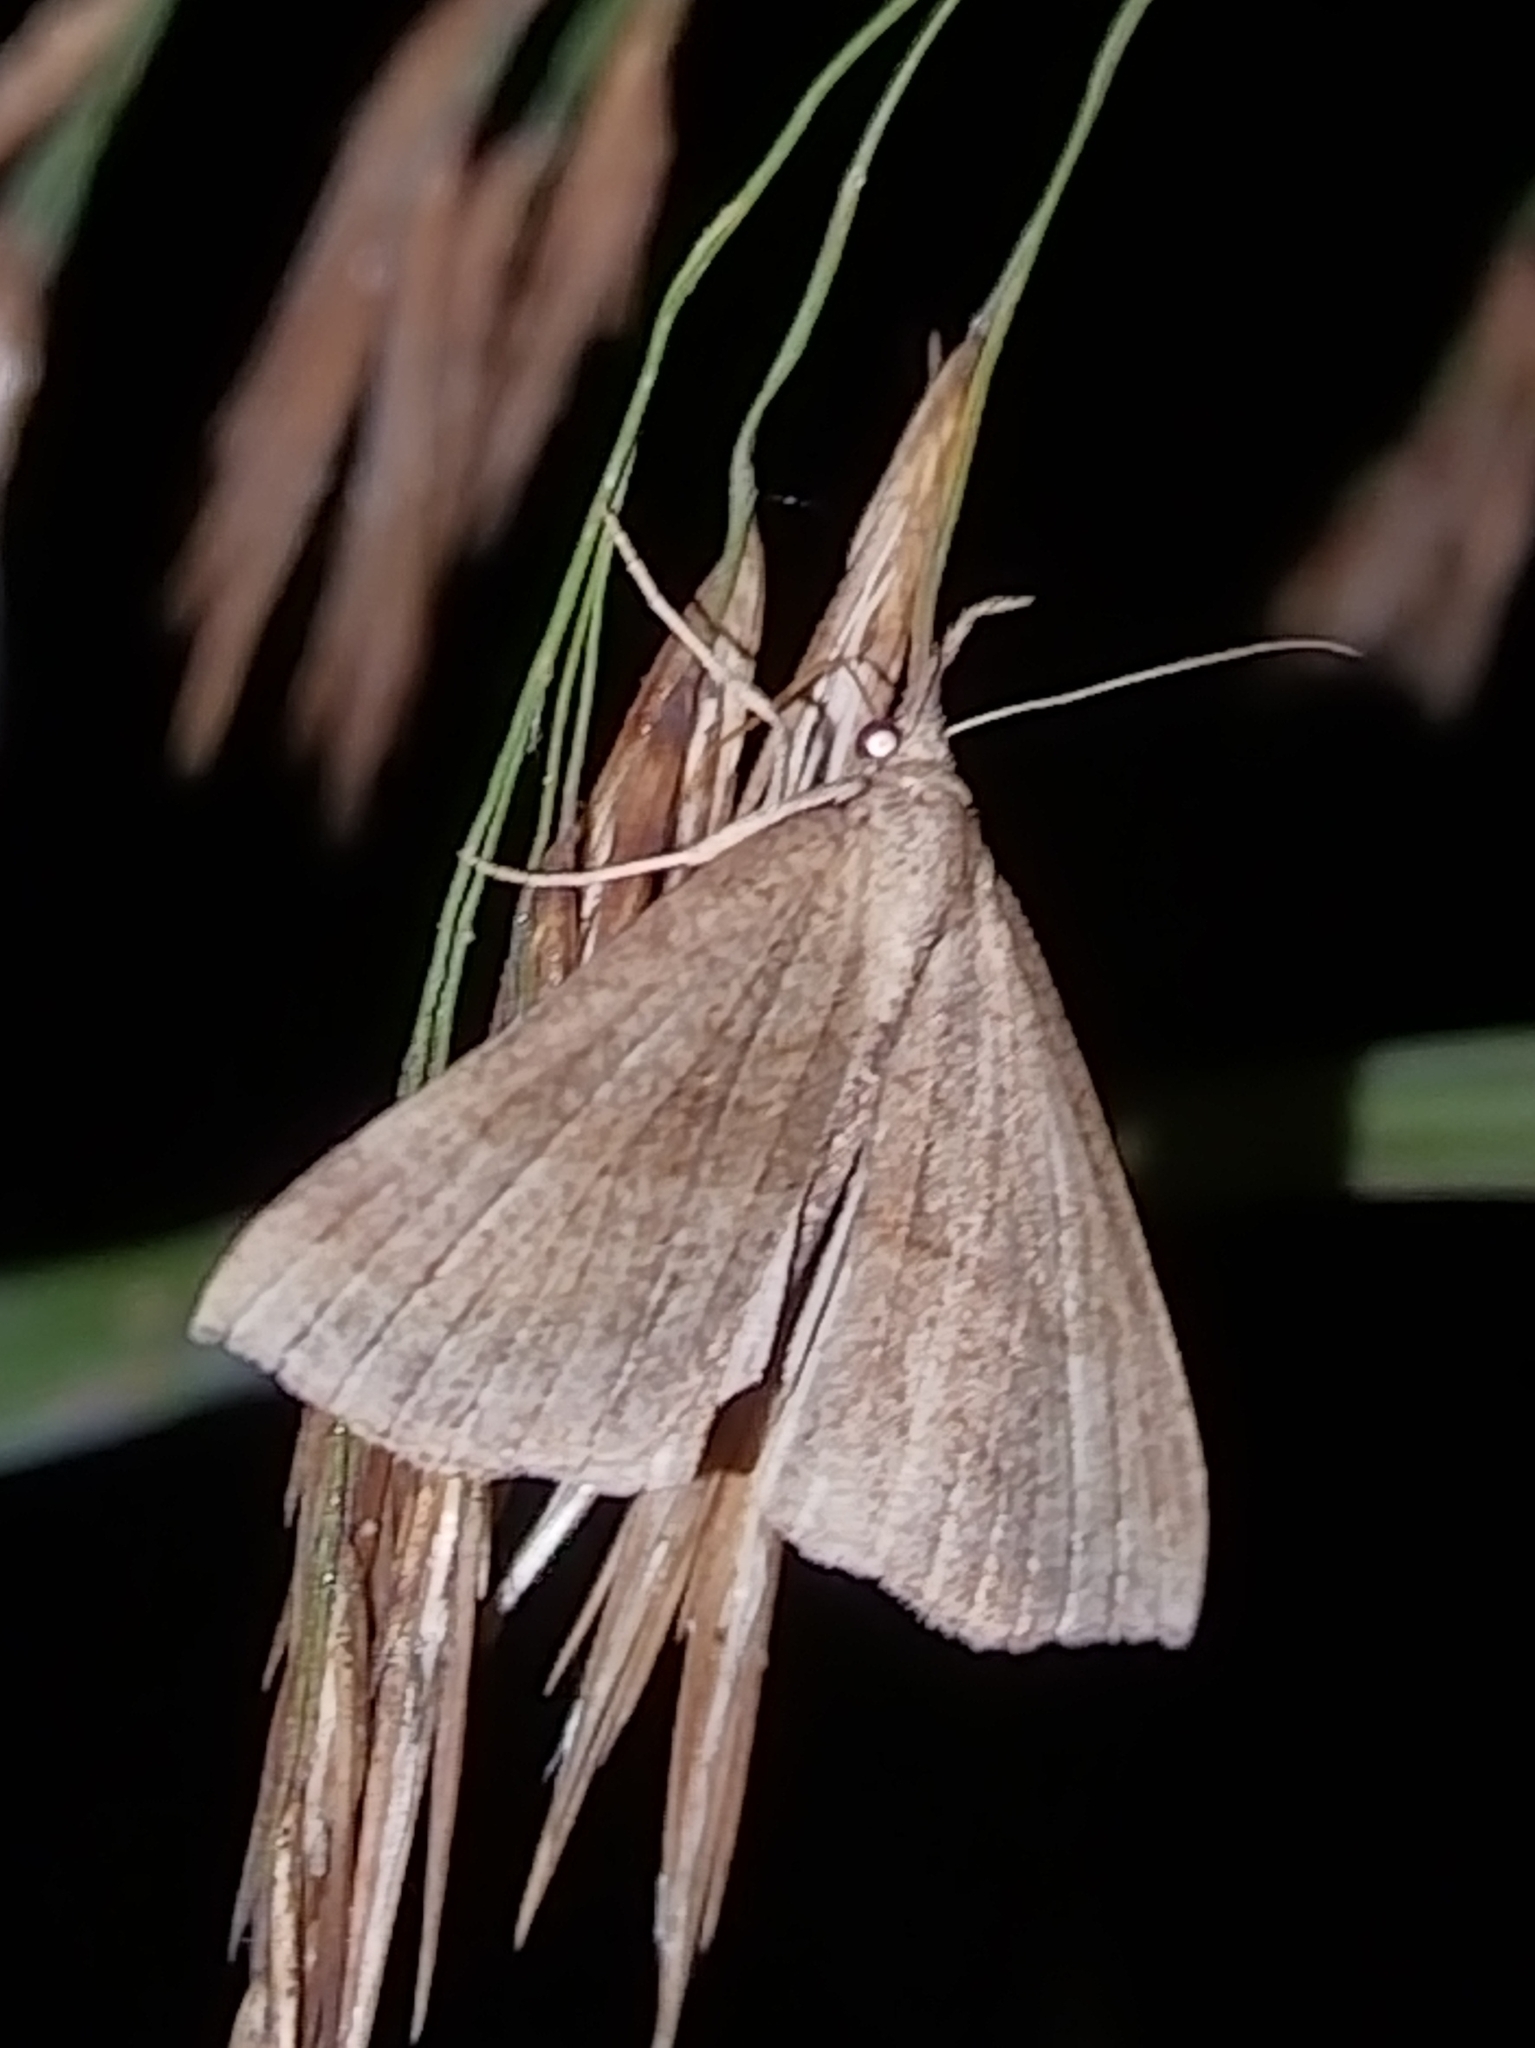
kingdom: Animalia
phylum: Arthropoda
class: Insecta
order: Lepidoptera
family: Erebidae
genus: Hypena
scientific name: Hypena proboscidalis
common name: Snout
